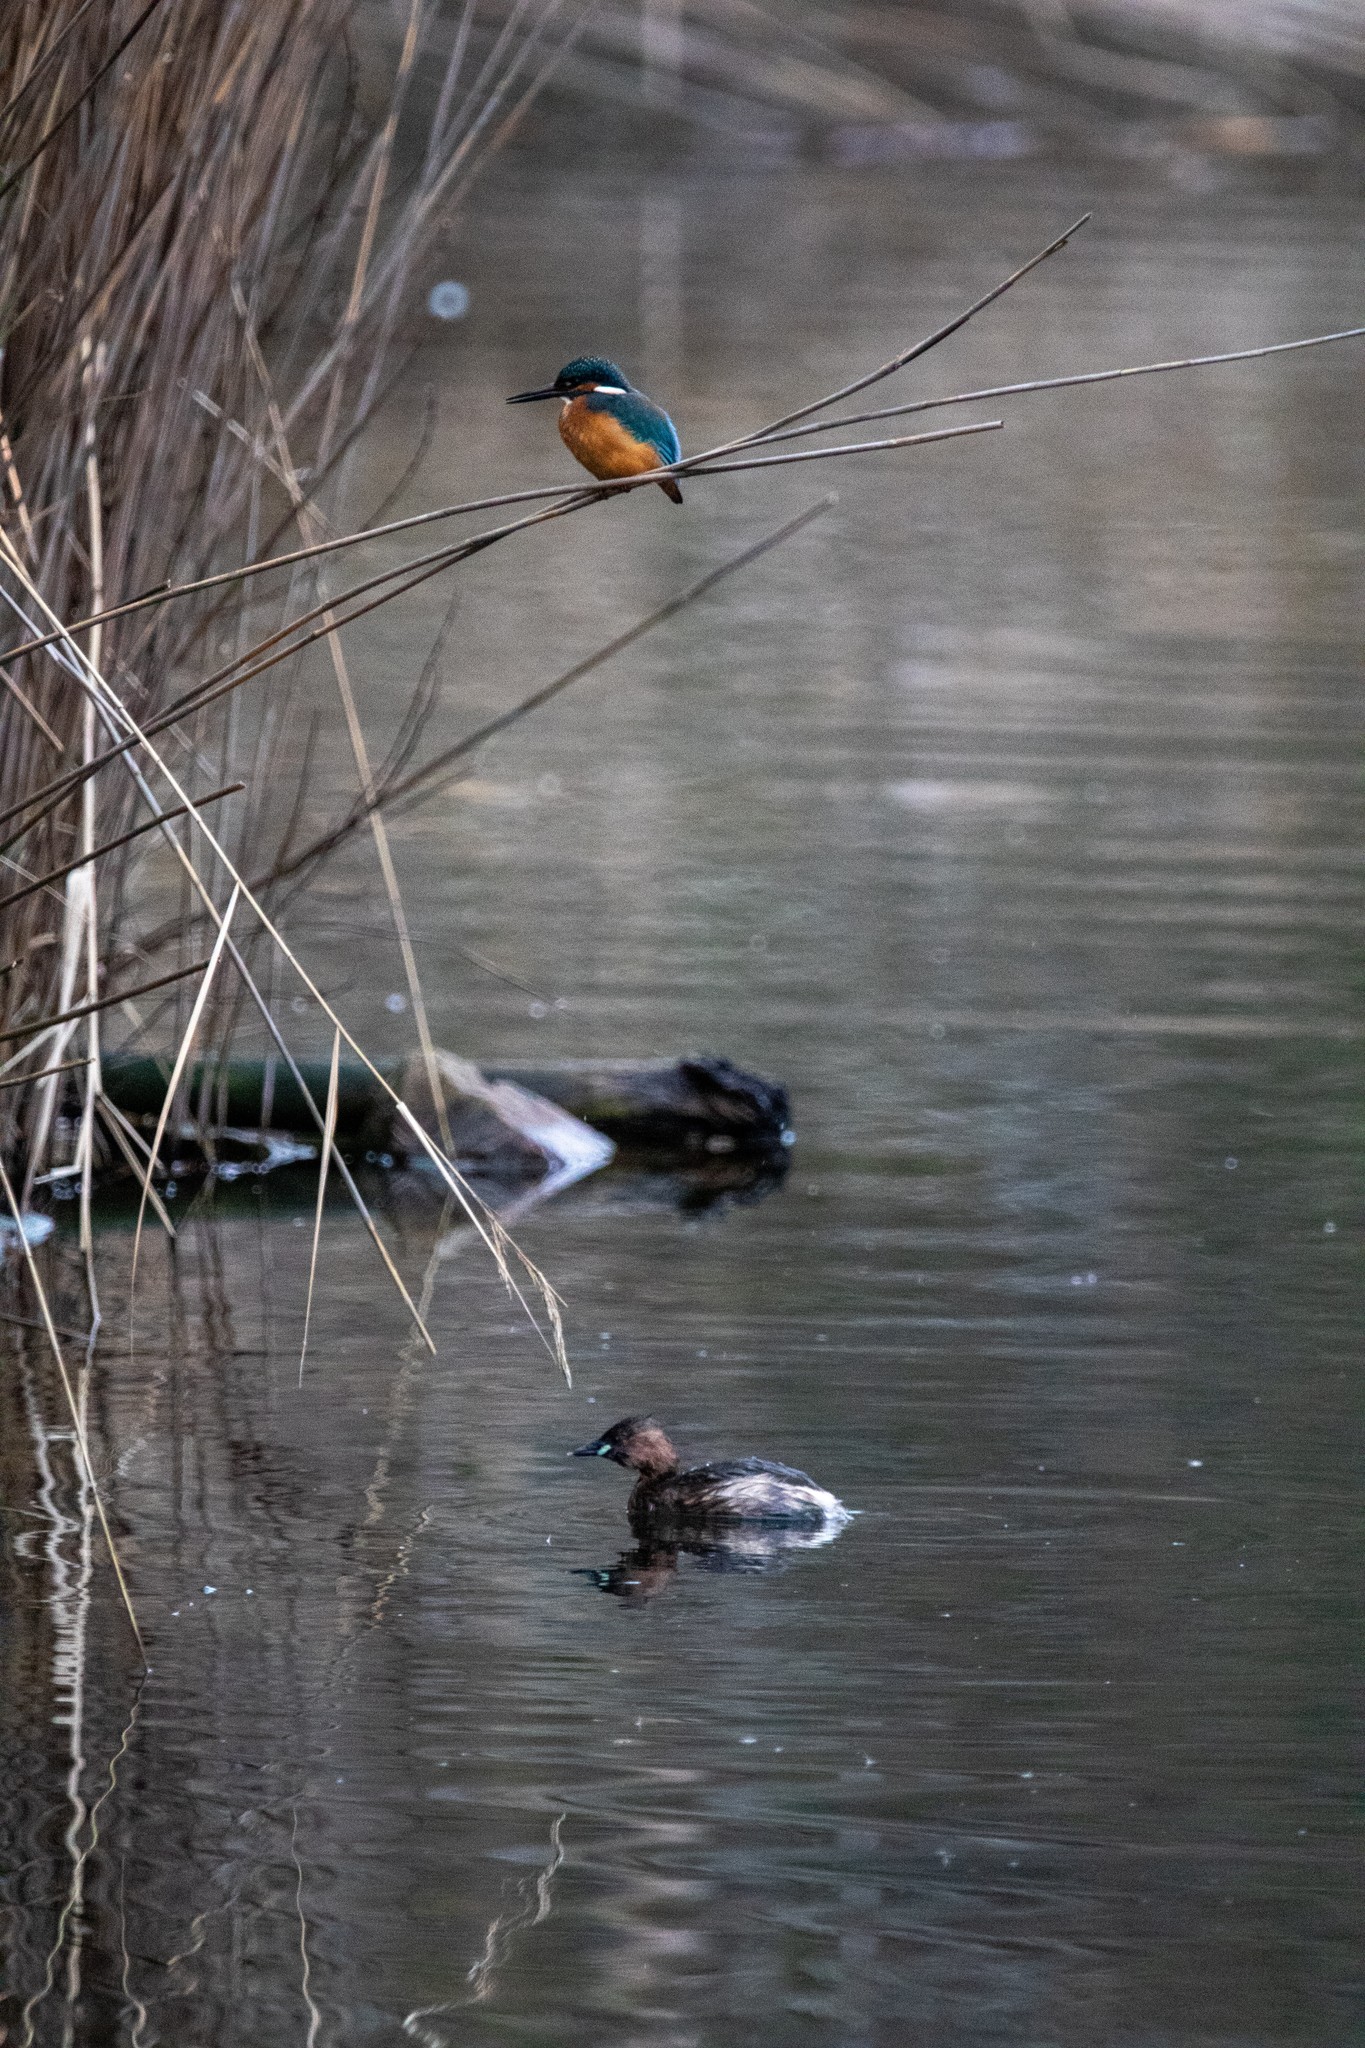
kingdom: Animalia
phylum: Chordata
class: Aves
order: Coraciiformes
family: Alcedinidae
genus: Alcedo
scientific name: Alcedo atthis
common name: Common kingfisher
